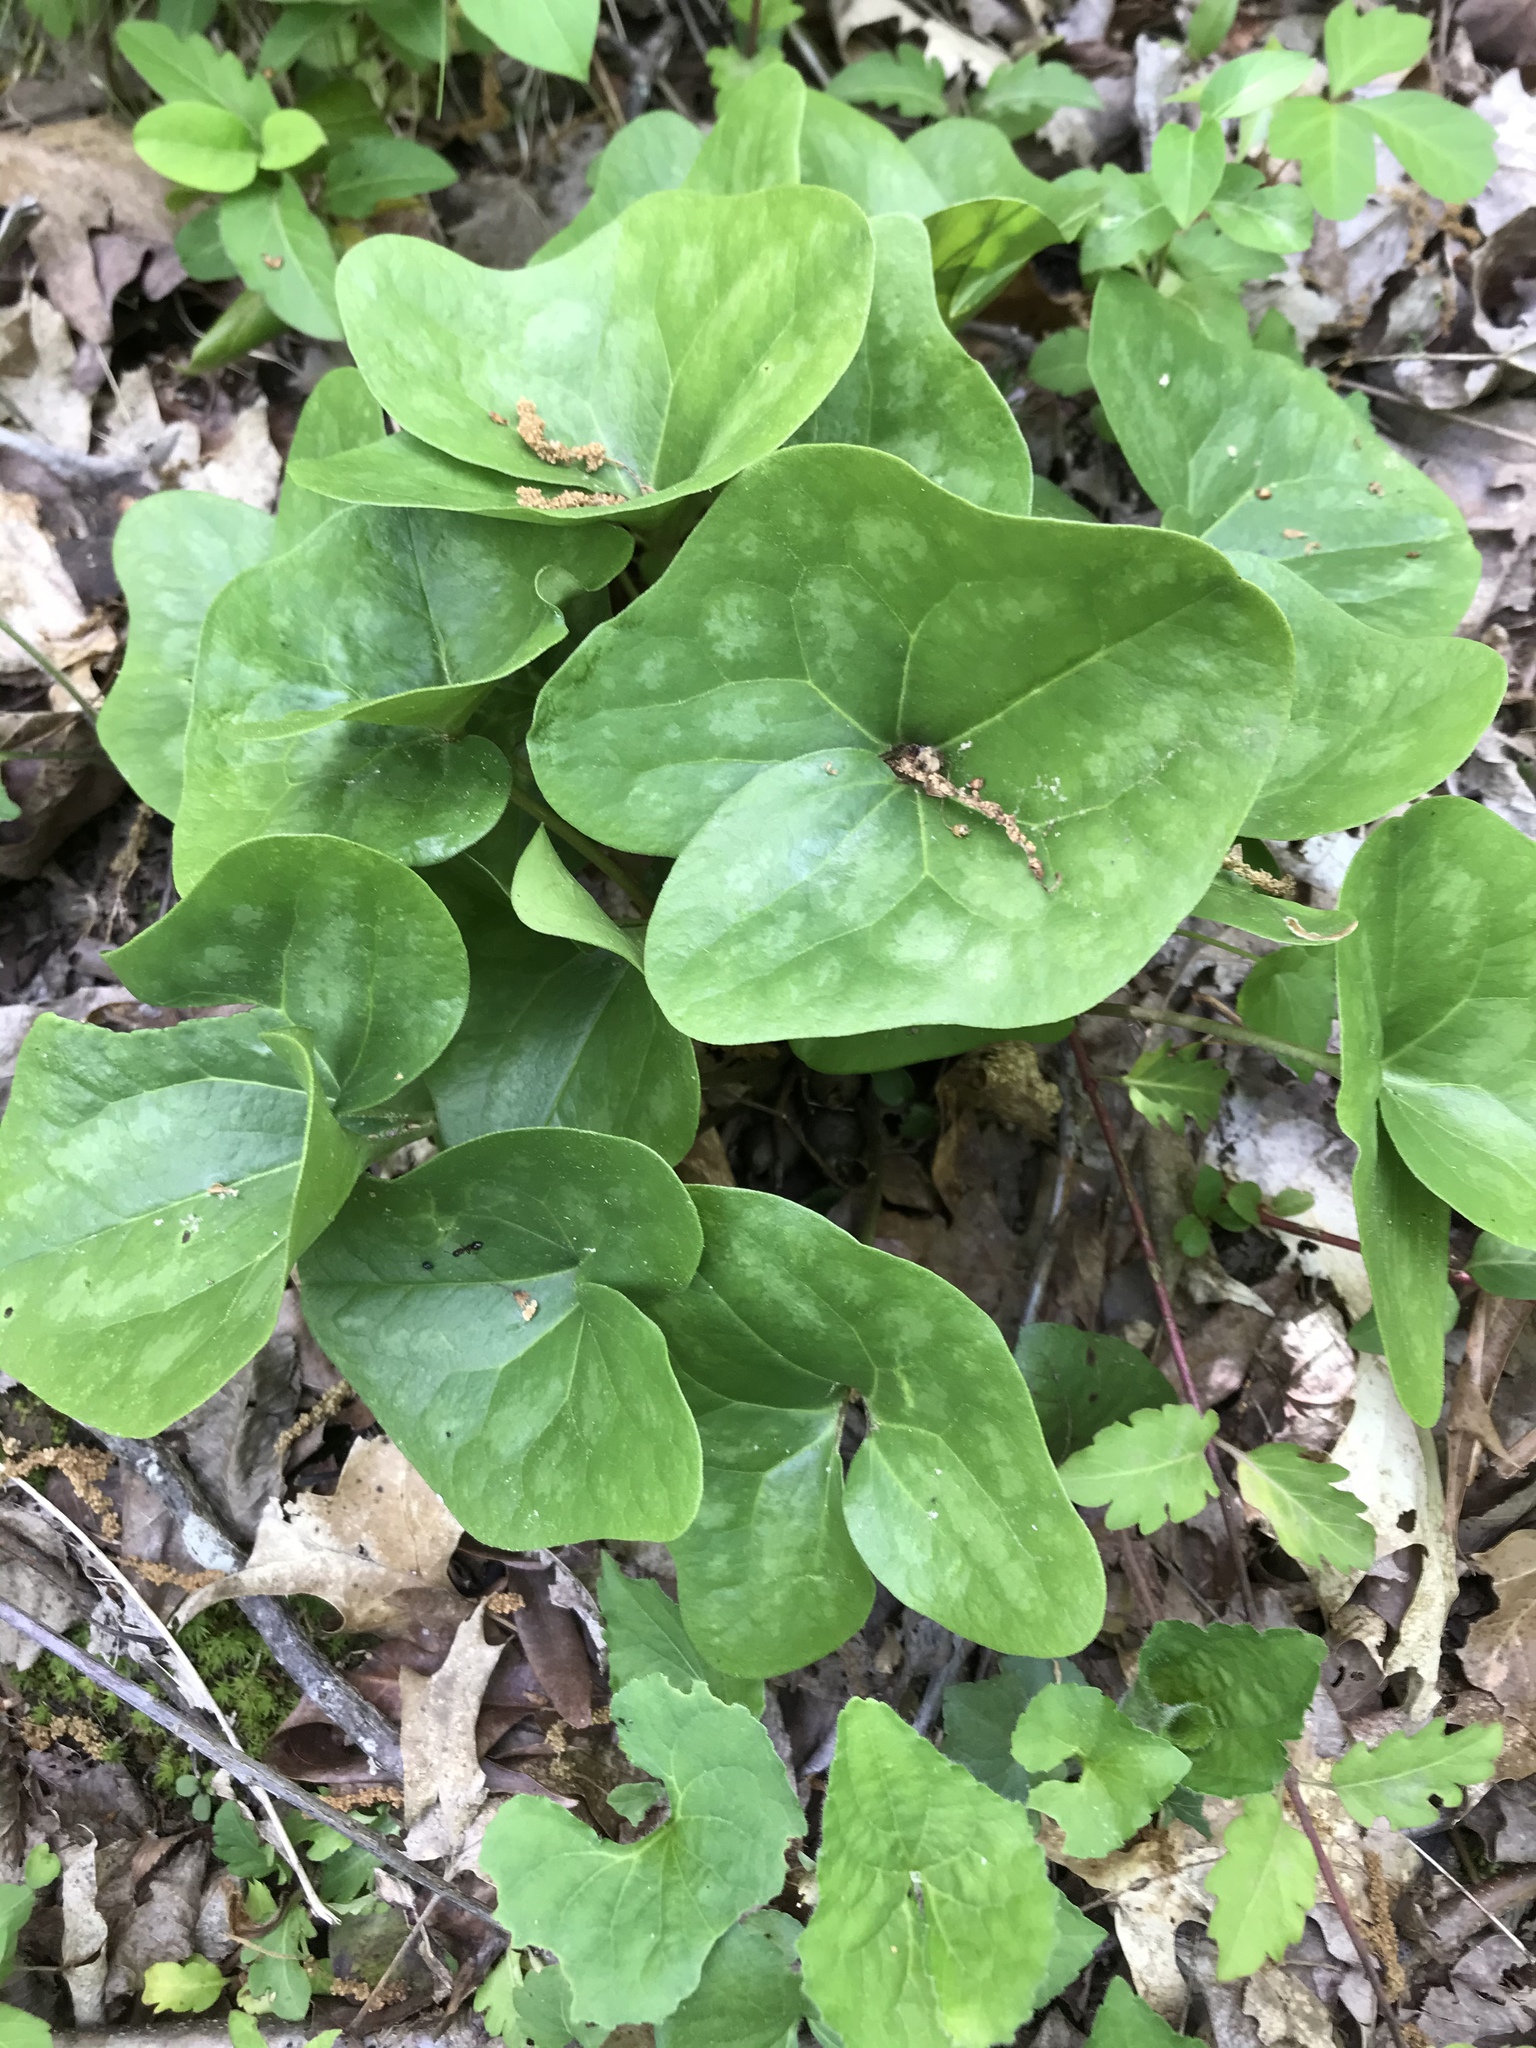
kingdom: Plantae
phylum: Tracheophyta
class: Magnoliopsida
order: Piperales
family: Aristolochiaceae
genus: Hexastylis
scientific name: Hexastylis arifolia
